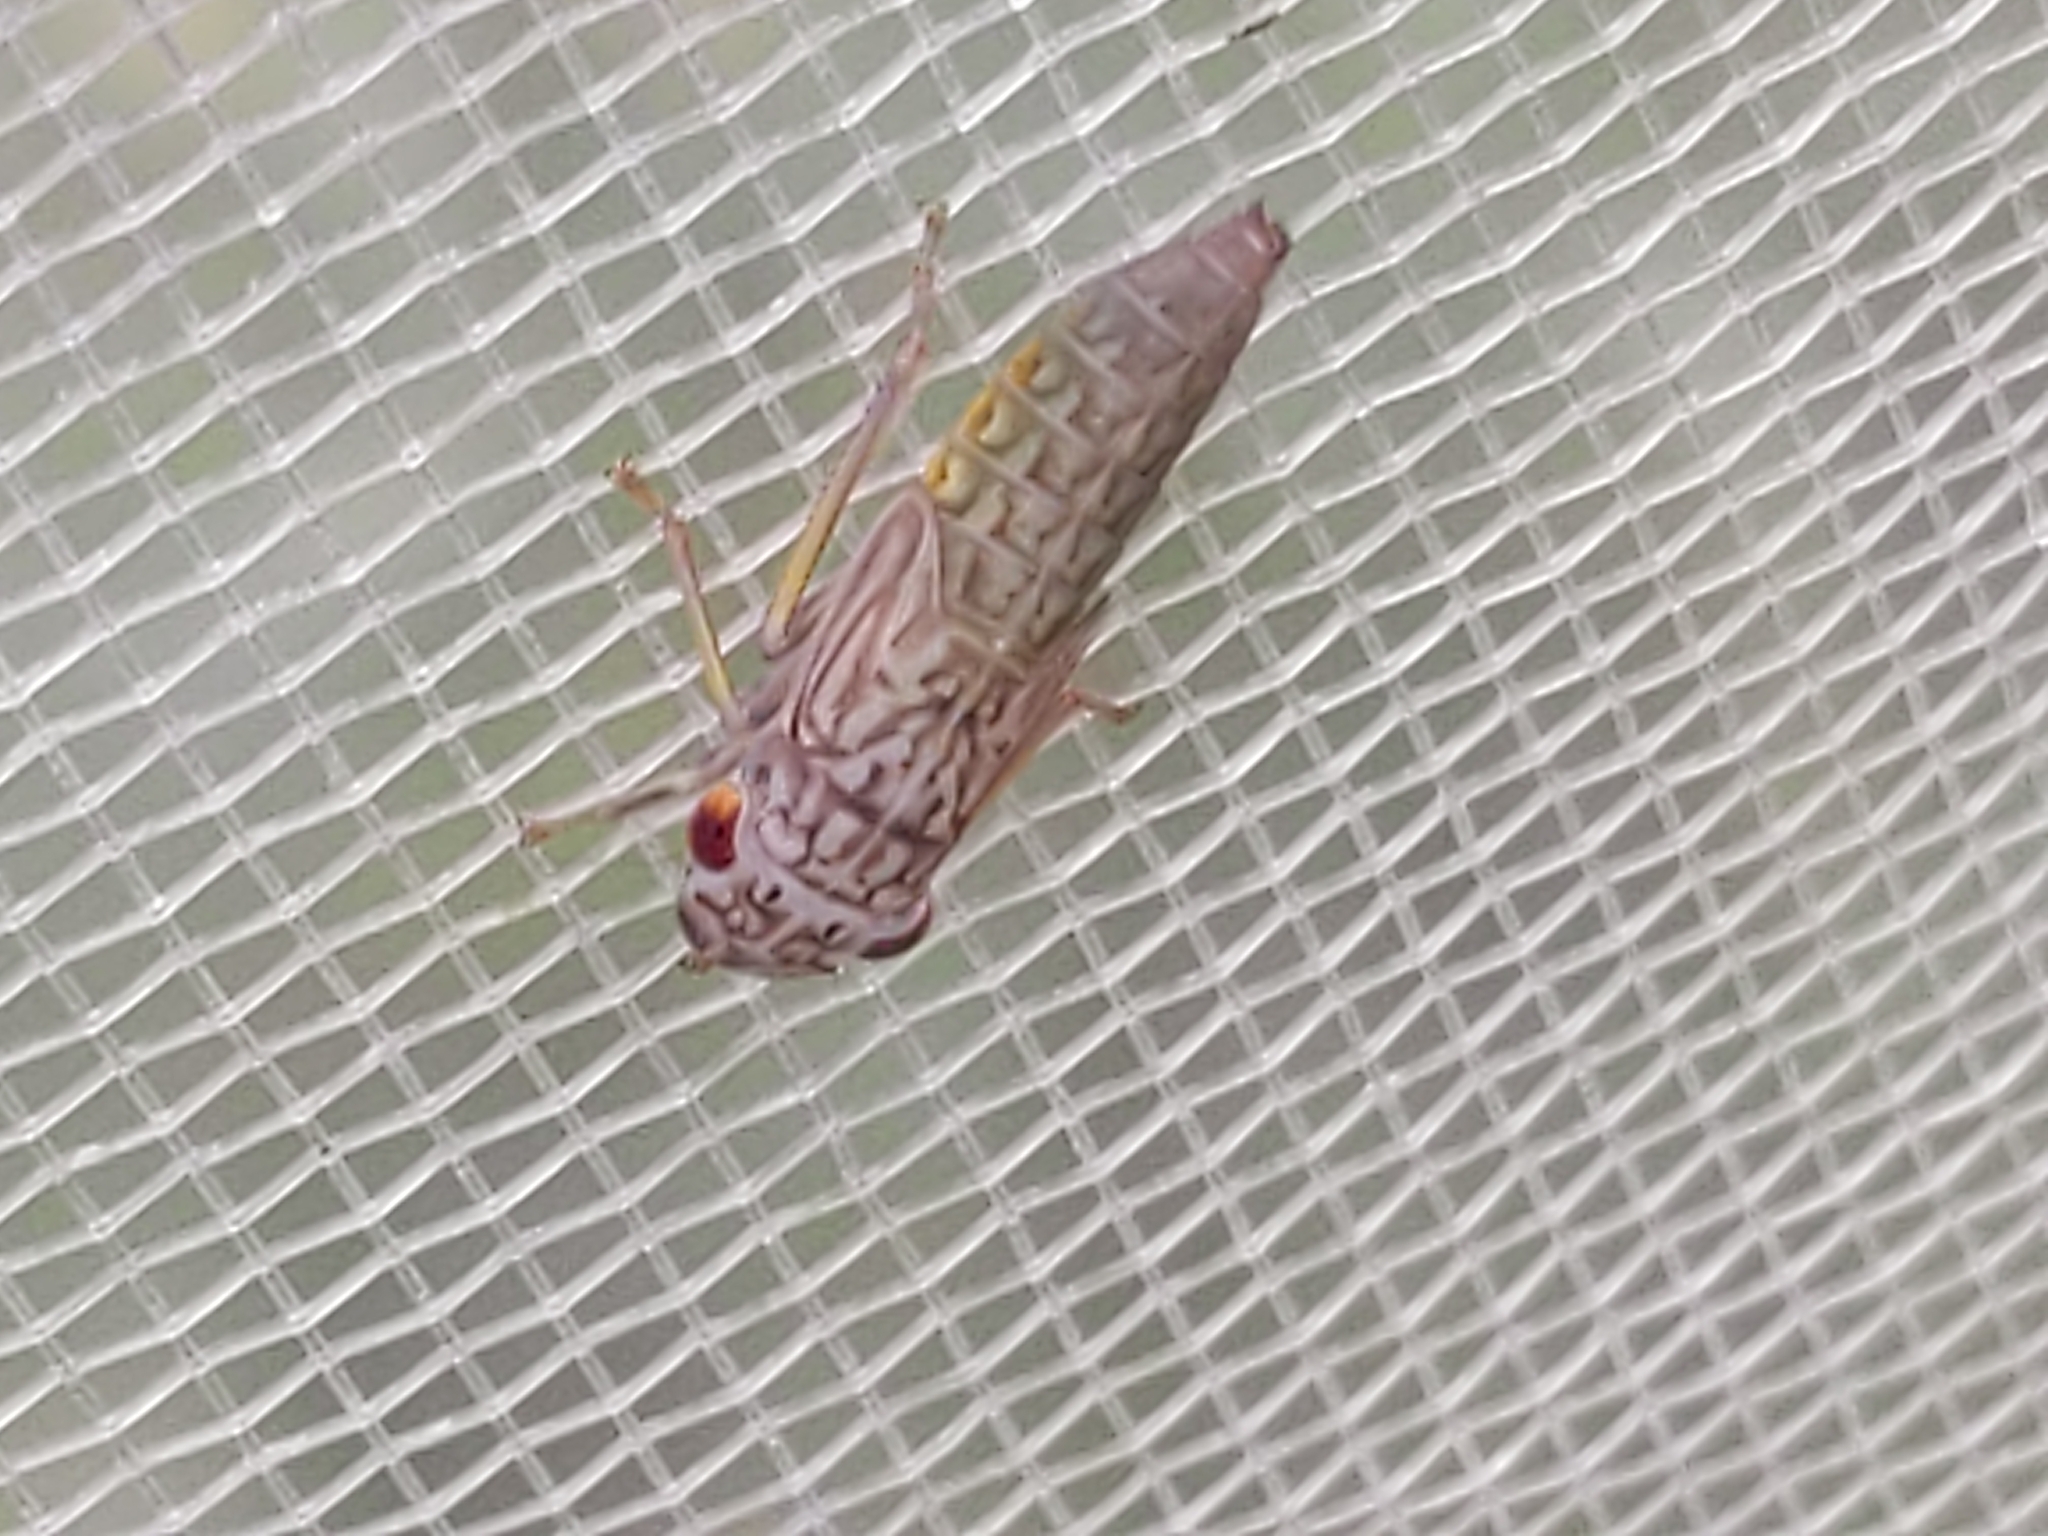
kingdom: Animalia
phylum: Arthropoda
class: Insecta
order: Hemiptera
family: Cicadellidae
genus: Oncometopia
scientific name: Oncometopia orbona
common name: Broad-headed sharpshooter
